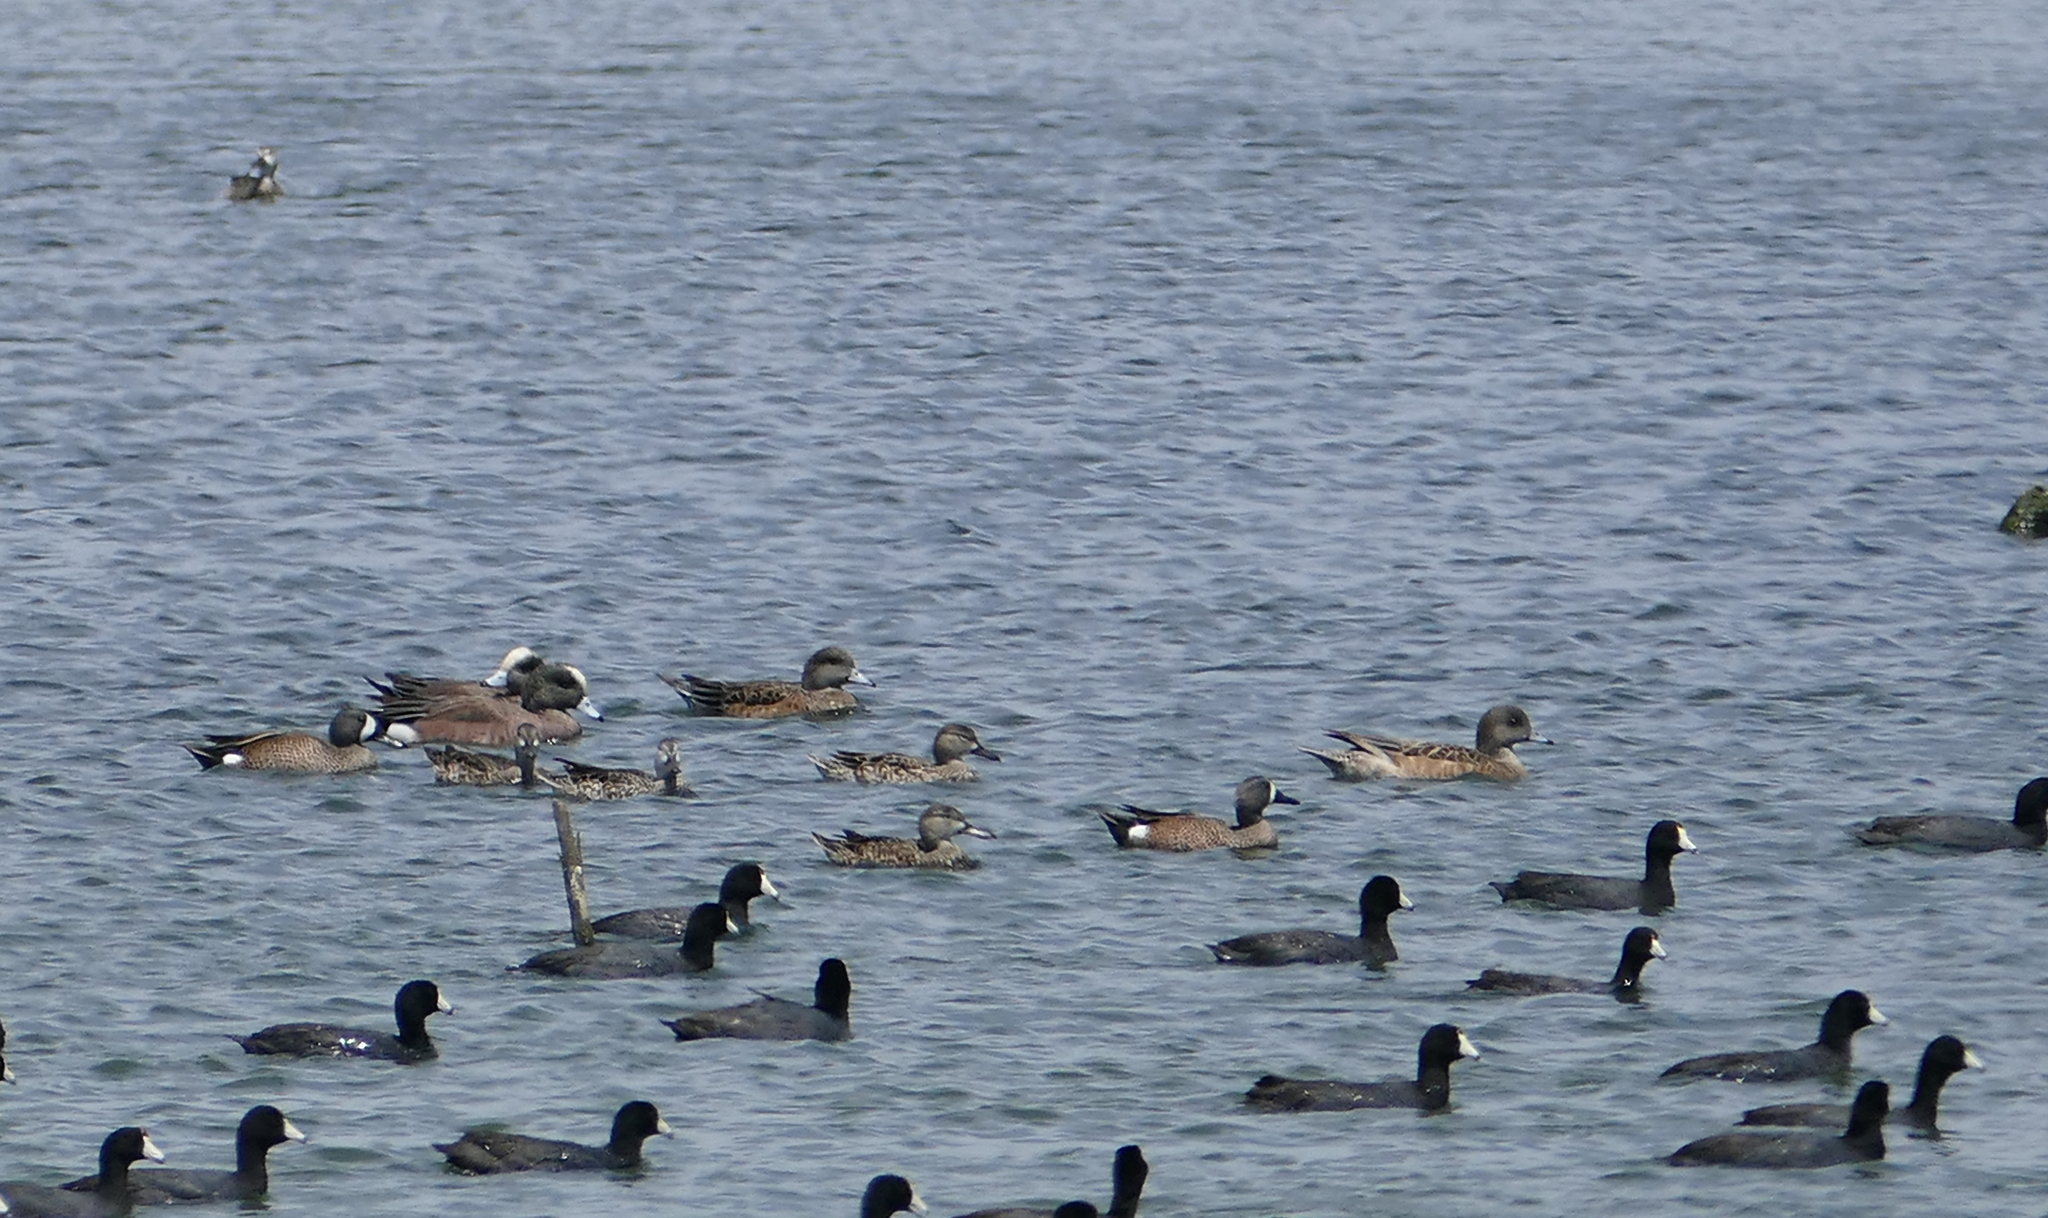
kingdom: Animalia
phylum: Chordata
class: Aves
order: Gruiformes
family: Rallidae
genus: Fulica
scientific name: Fulica americana
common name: American coot
